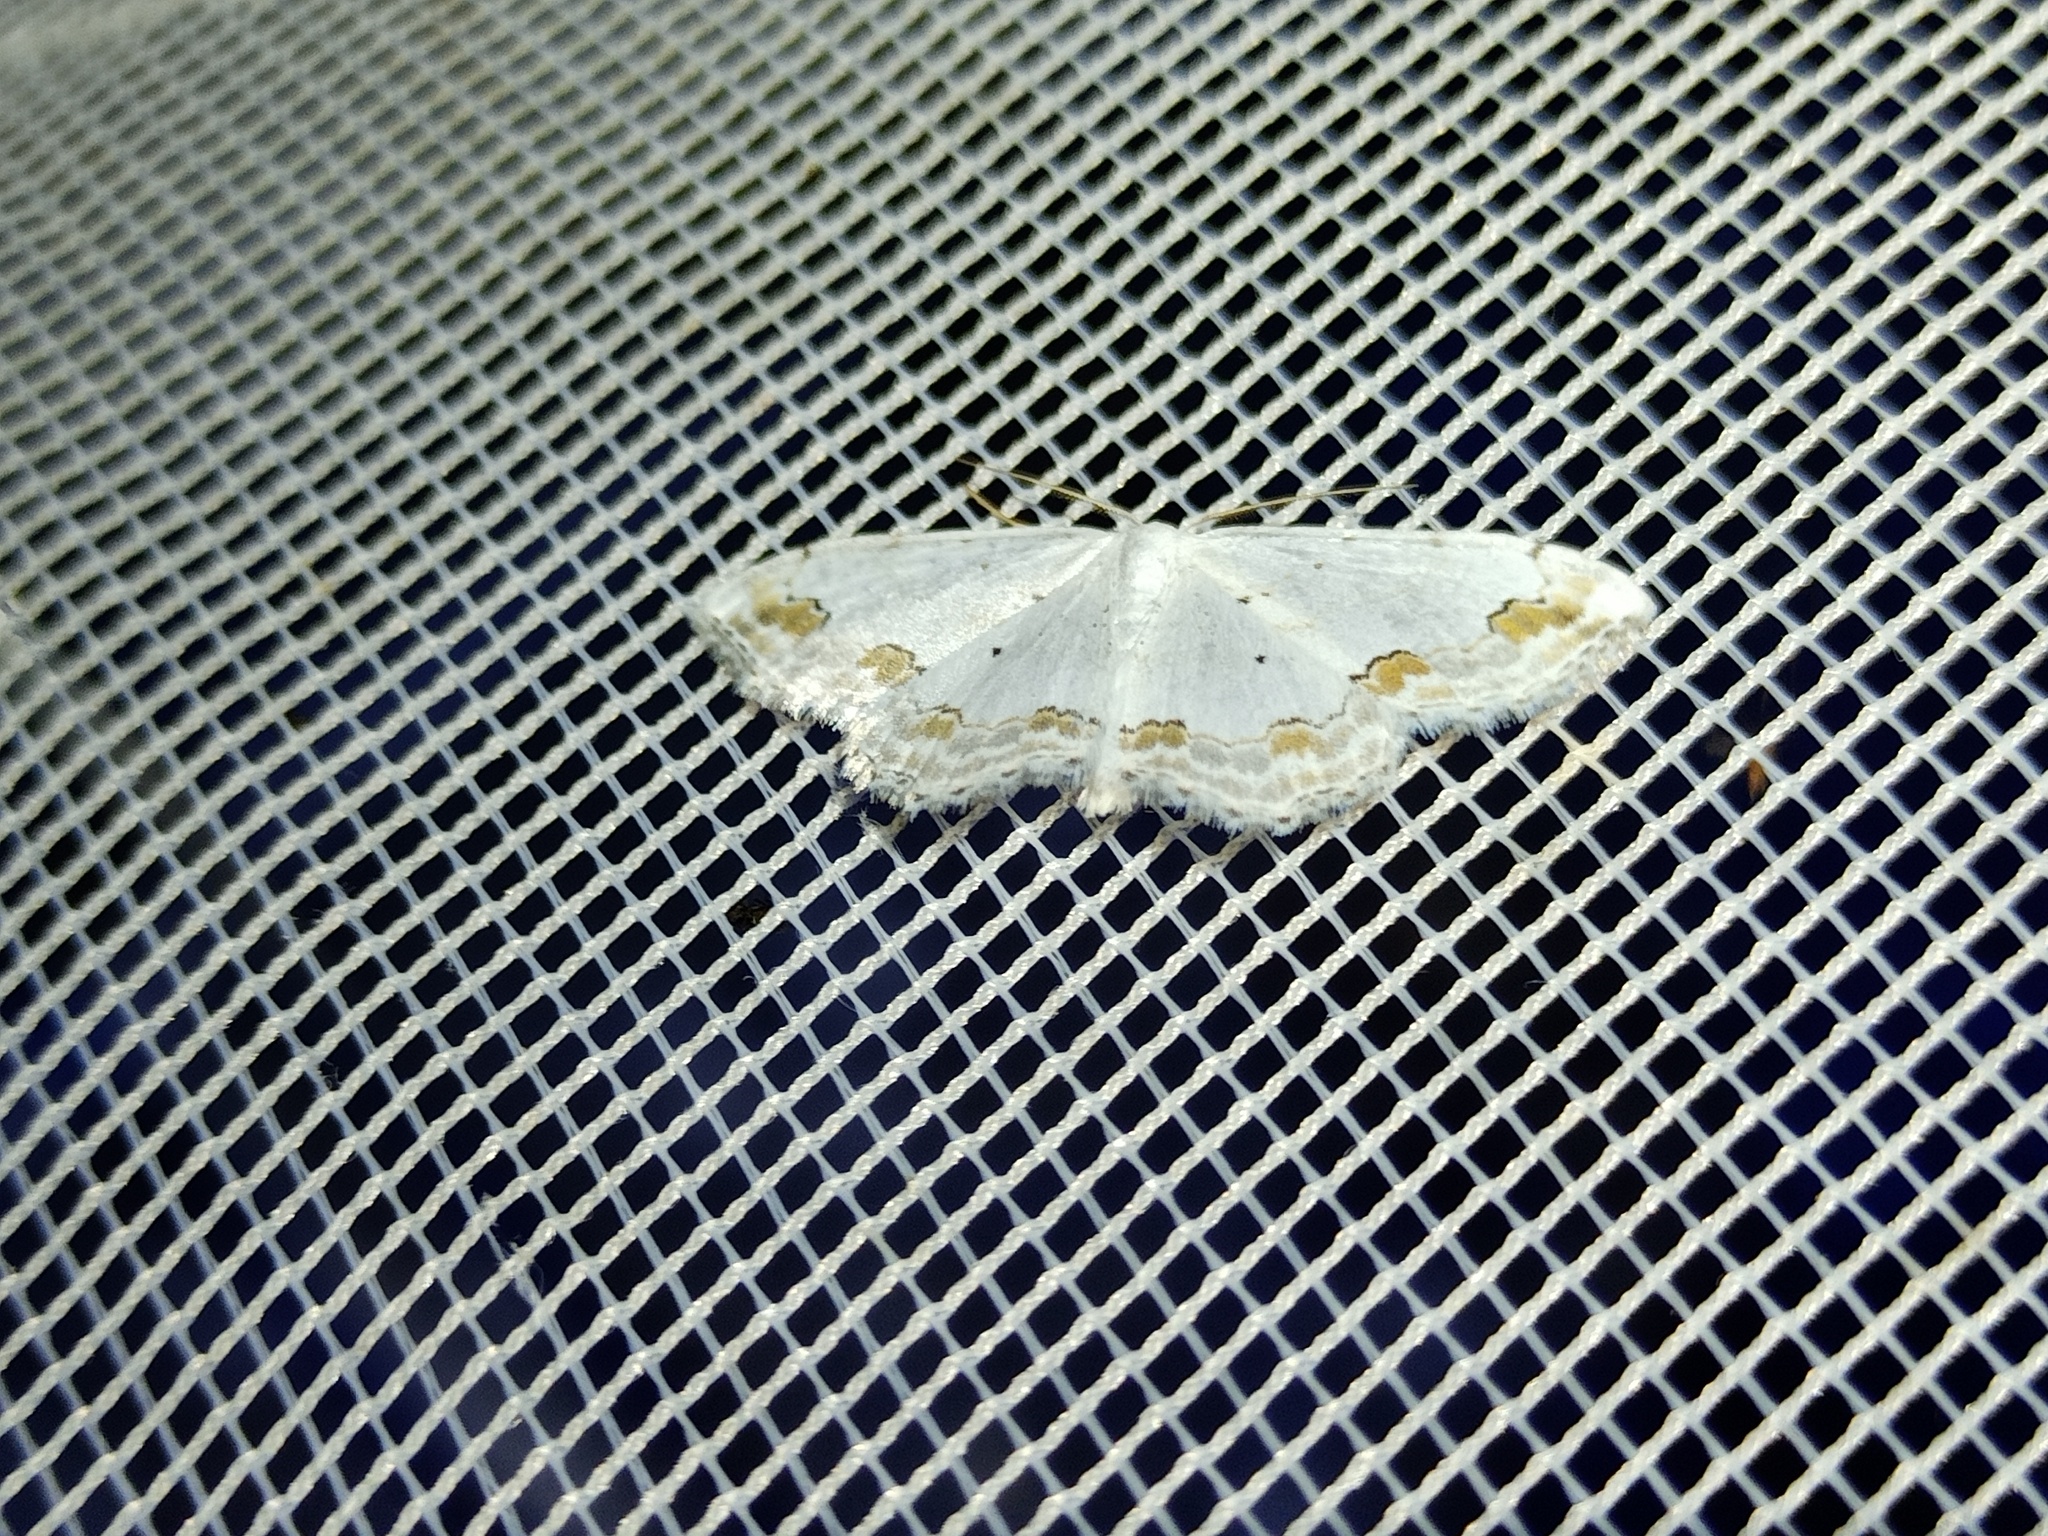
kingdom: Animalia
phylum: Arthropoda
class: Insecta
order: Lepidoptera
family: Geometridae
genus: Scopula
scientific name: Scopula ornata
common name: Lace border
